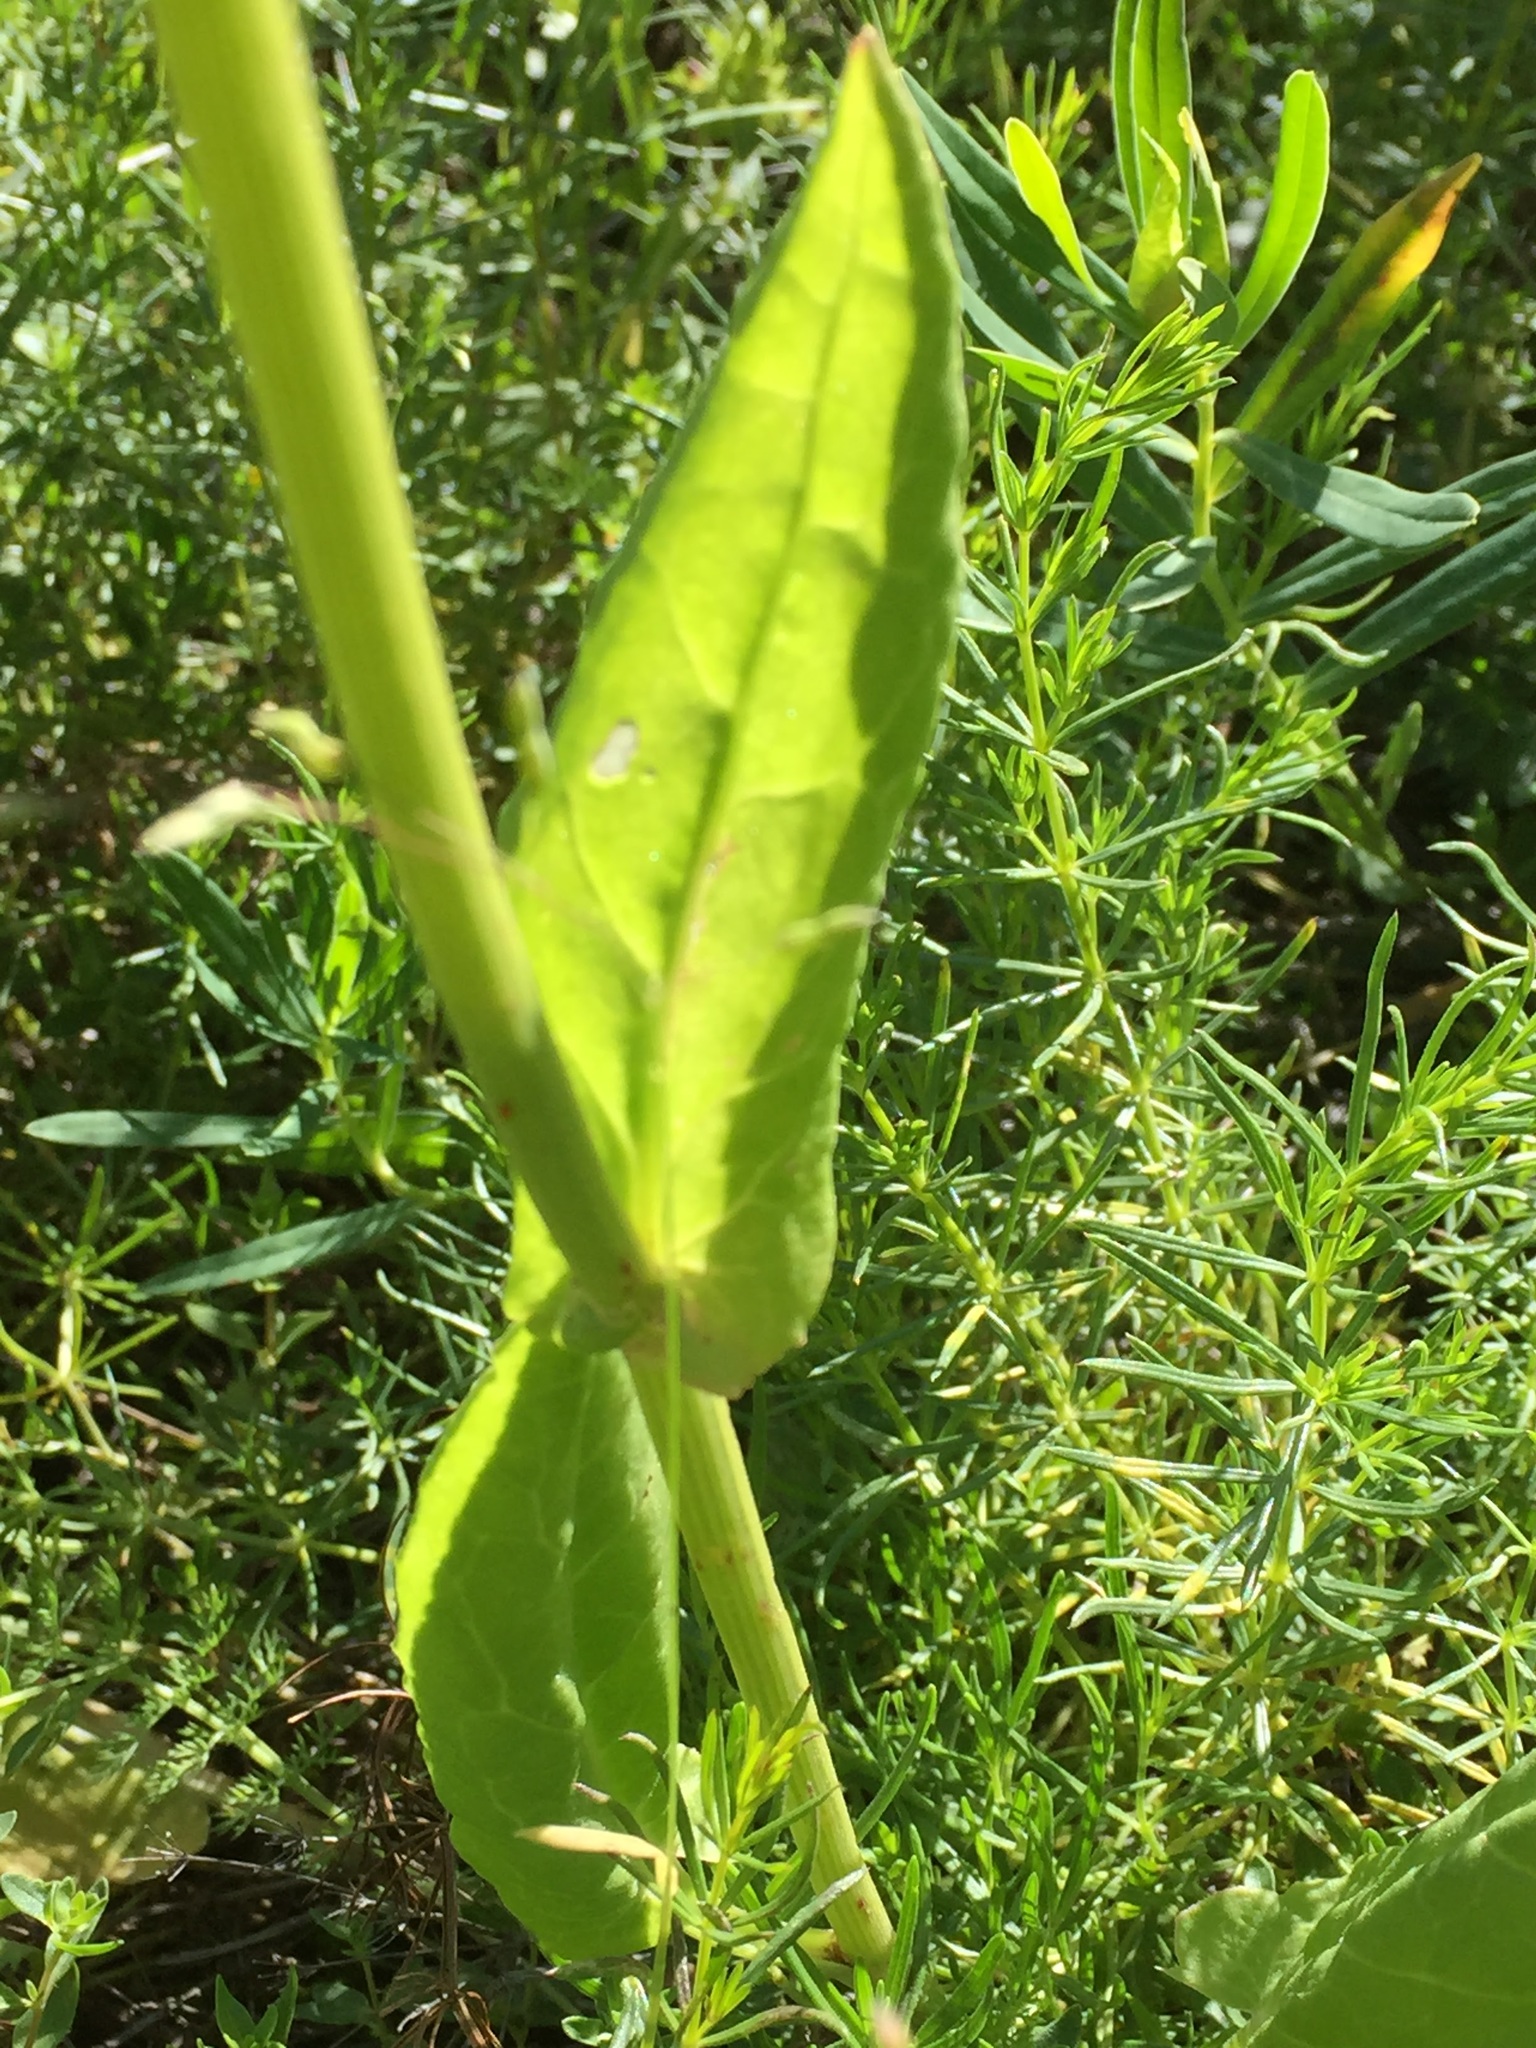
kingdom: Plantae
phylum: Tracheophyta
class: Magnoliopsida
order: Caryophyllales
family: Polygonaceae
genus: Koenigia
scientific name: Koenigia alpina
